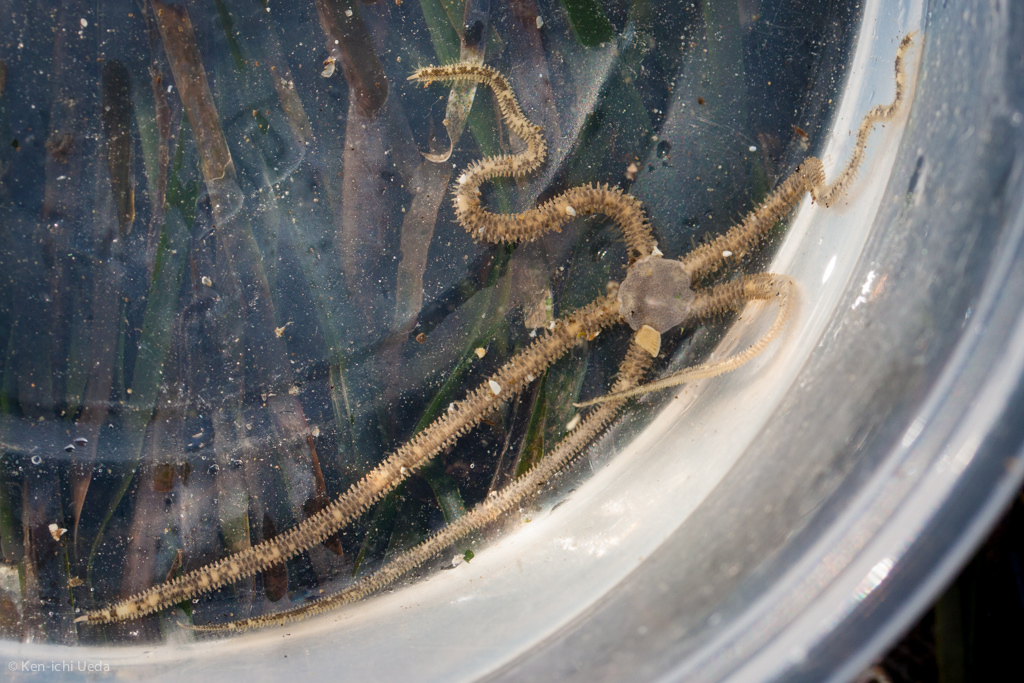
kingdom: Animalia
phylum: Echinodermata
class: Ophiuroidea
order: Amphilepidida
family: Amphiuridae
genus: Amphiodia
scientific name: Amphiodia occidentalis
